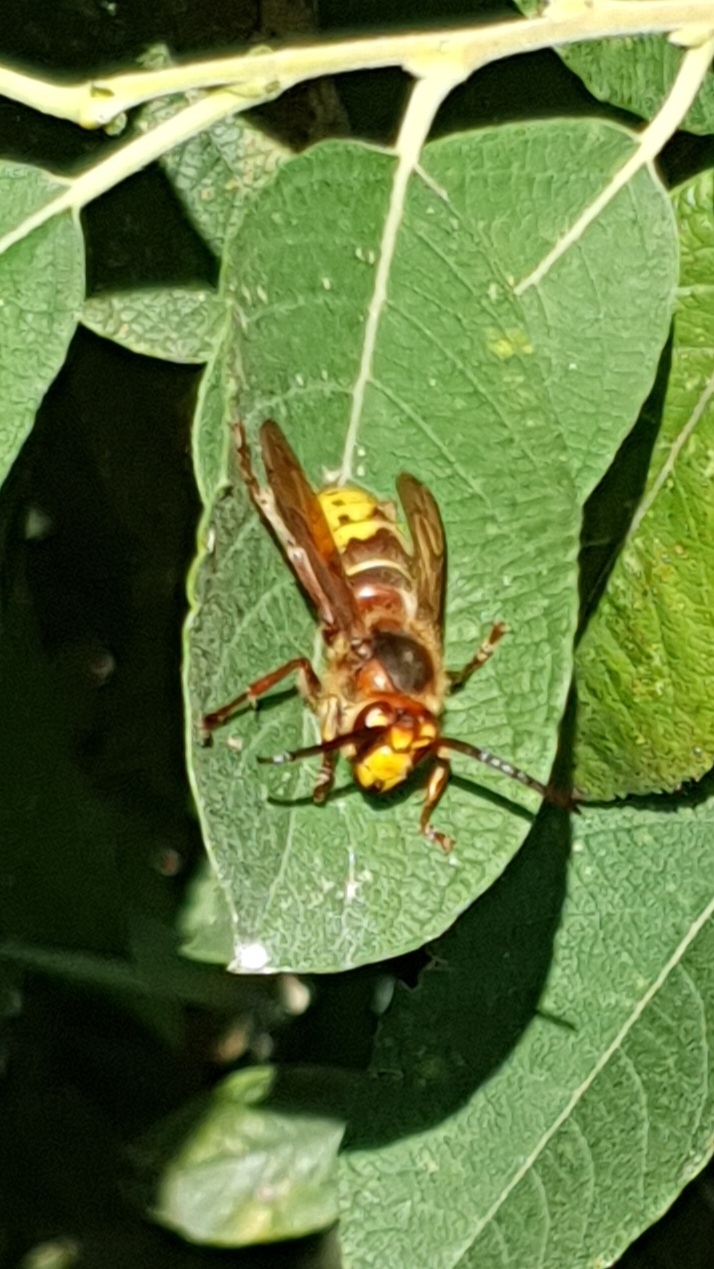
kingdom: Animalia
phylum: Arthropoda
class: Insecta
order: Hymenoptera
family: Vespidae
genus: Vespa
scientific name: Vespa crabro
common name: Hornet
